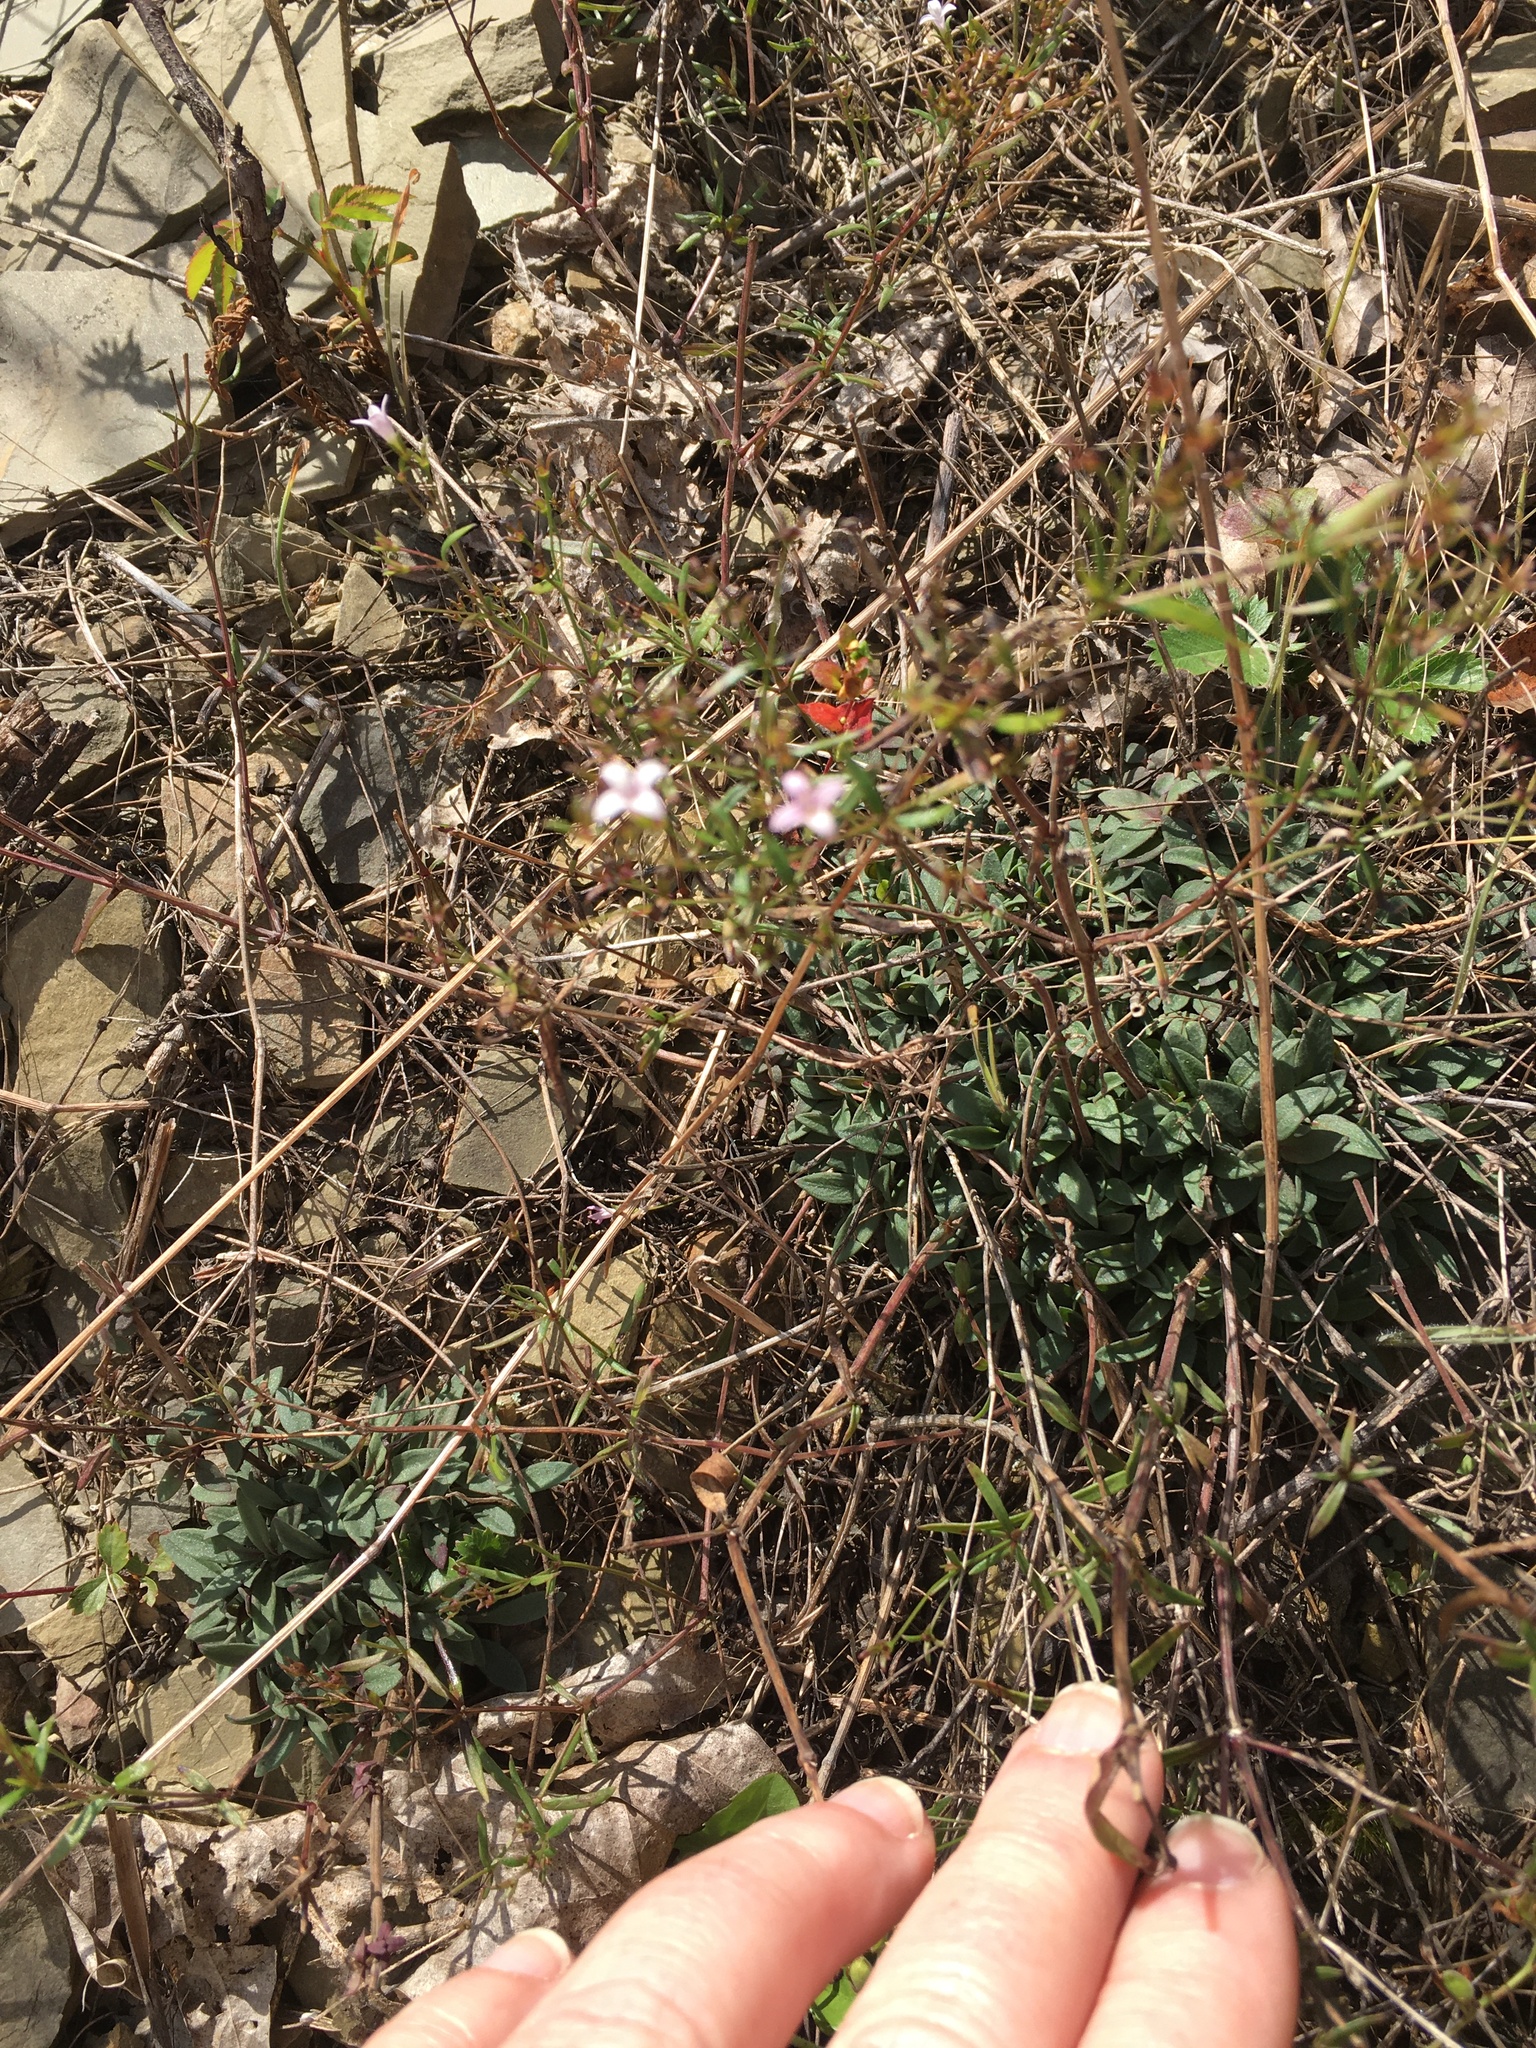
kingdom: Plantae
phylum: Tracheophyta
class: Magnoliopsida
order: Gentianales
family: Rubiaceae
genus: Houstonia
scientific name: Houstonia longifolia
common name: Long-leaved bluets
